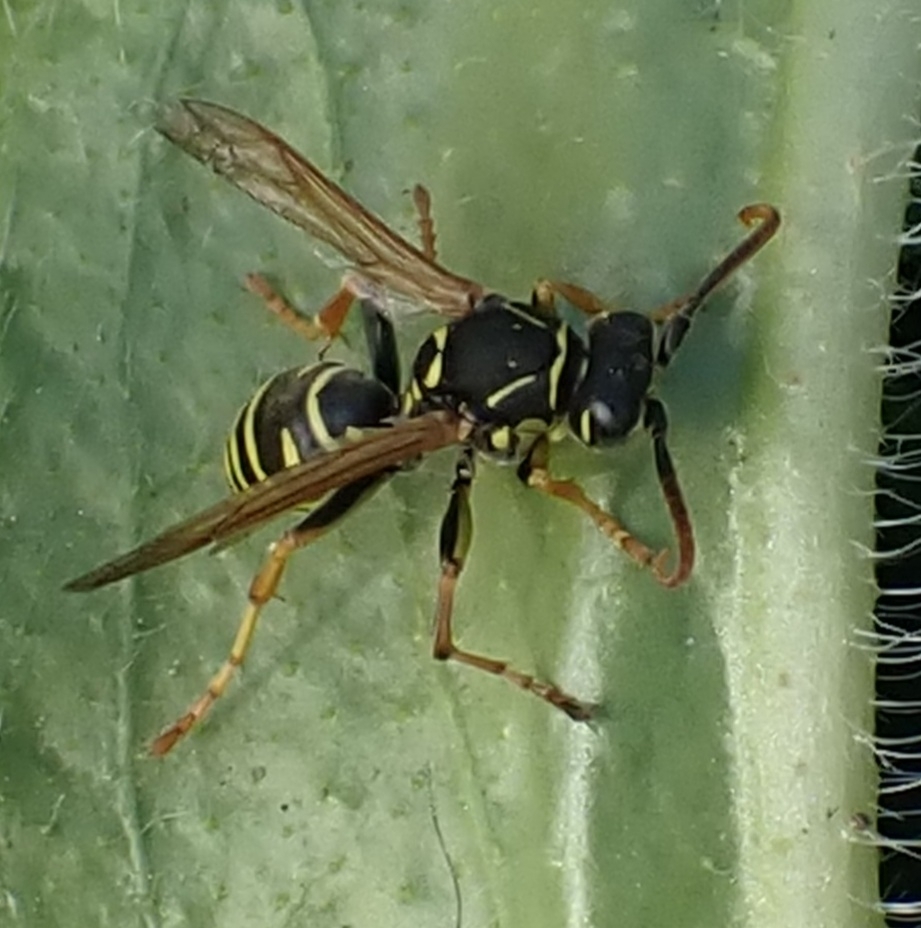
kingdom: Animalia
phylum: Arthropoda
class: Insecta
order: Hymenoptera
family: Eumenidae
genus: Polistes
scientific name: Polistes nimpha
